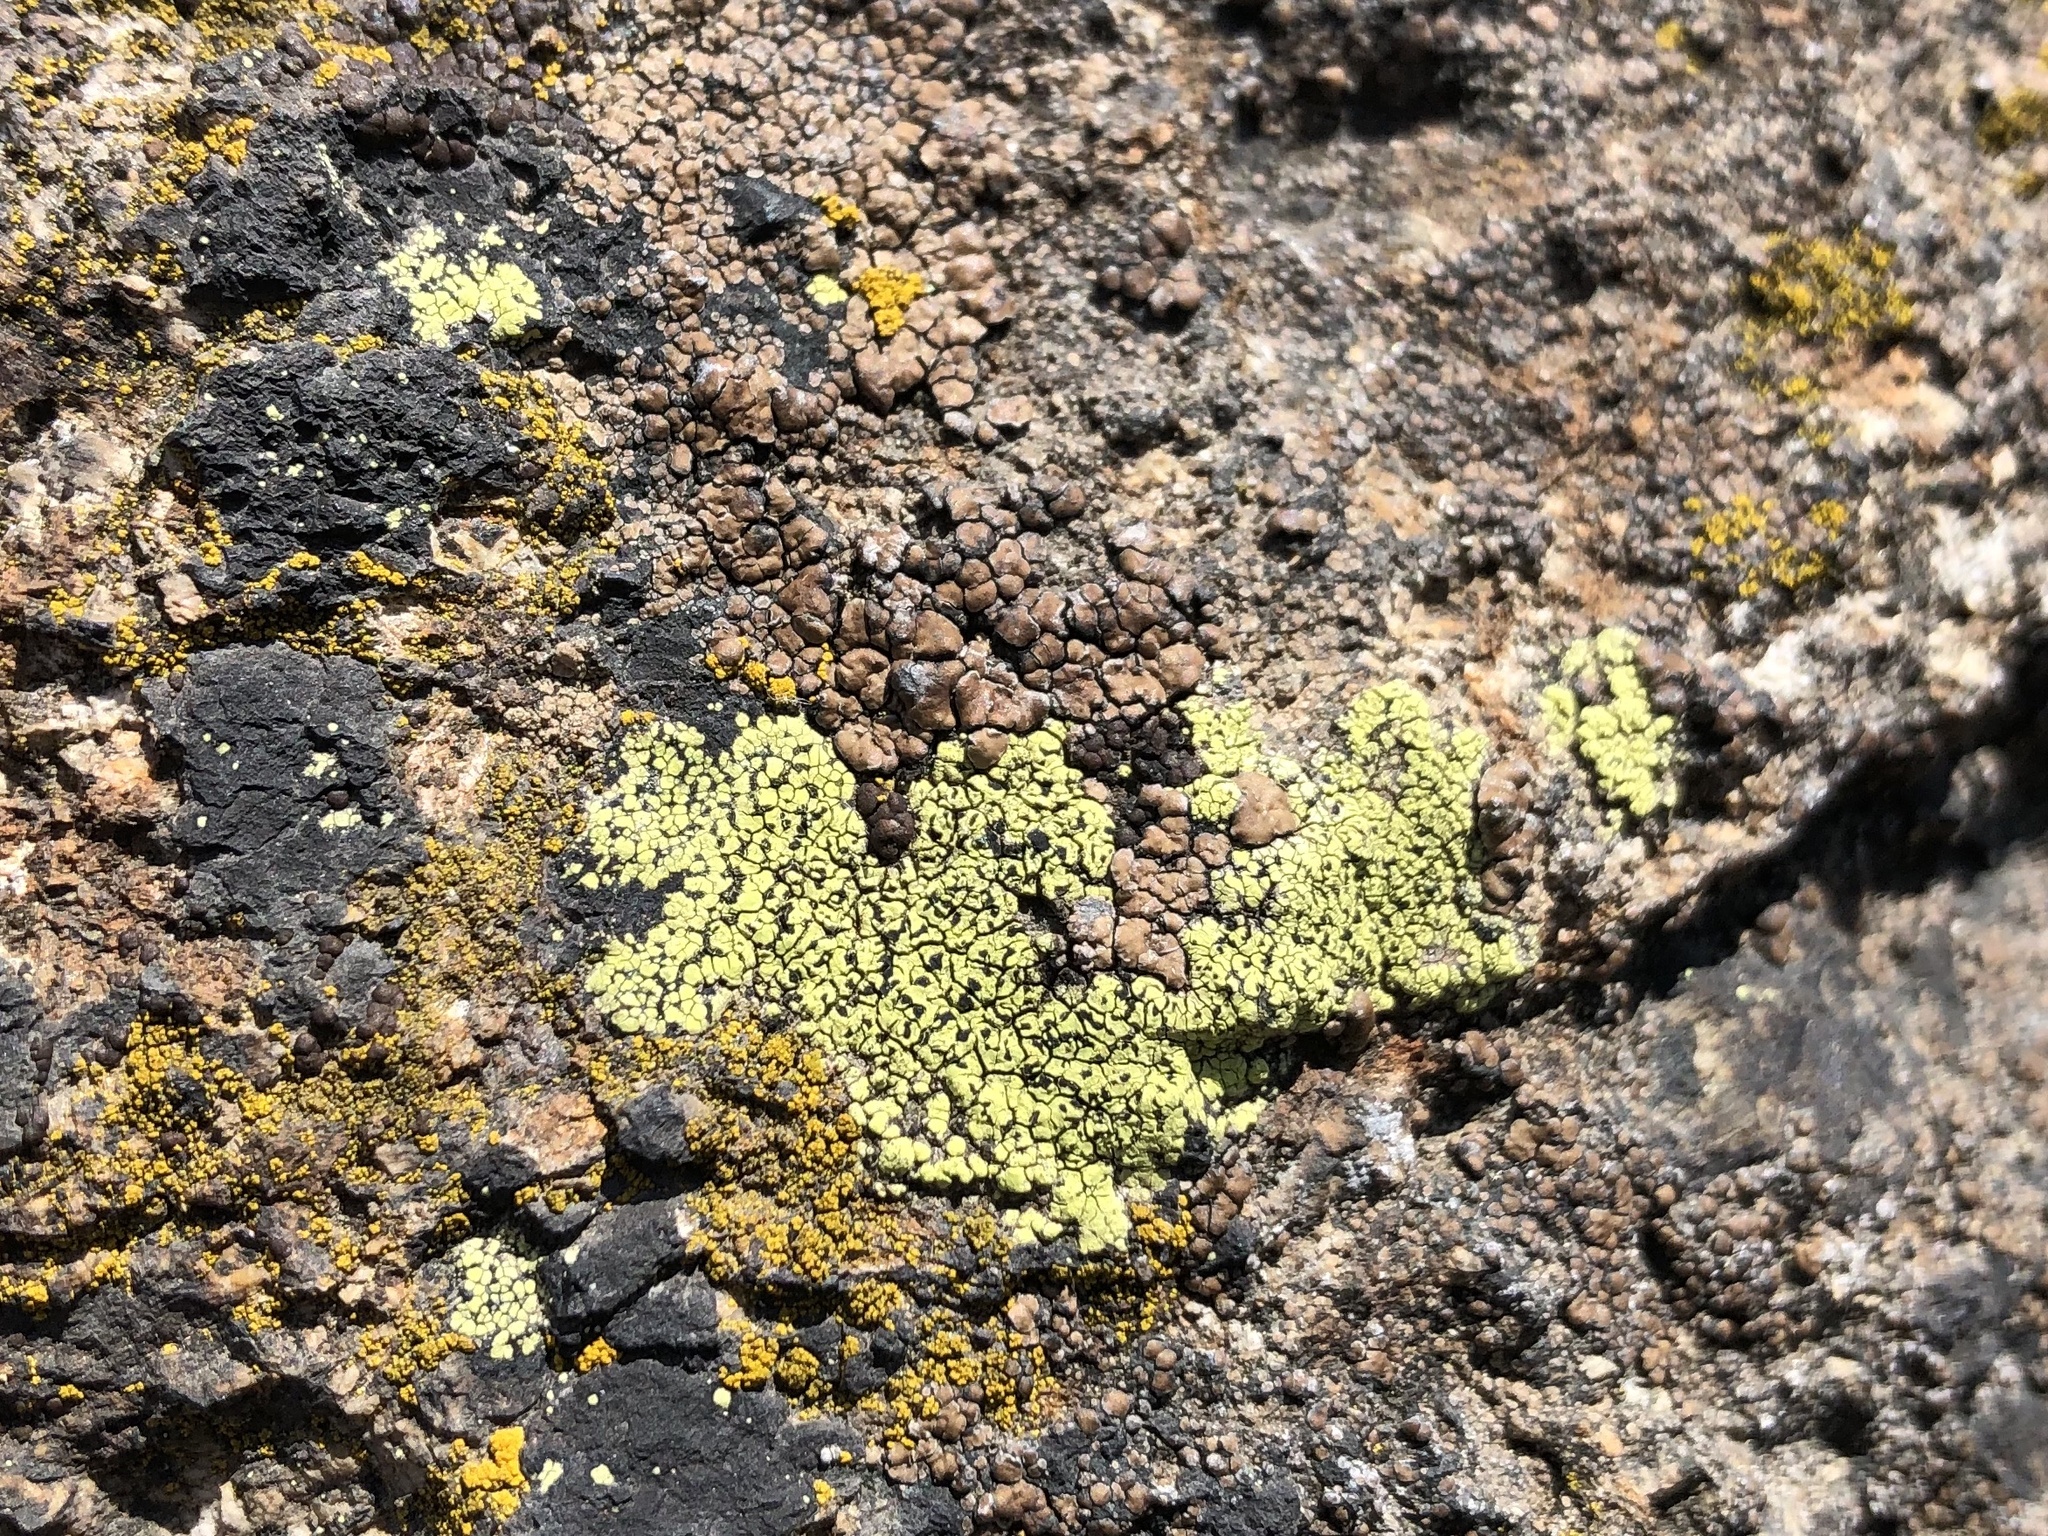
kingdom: Fungi
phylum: Ascomycota
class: Lecanoromycetes
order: Rhizocarpales
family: Rhizocarpaceae
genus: Rhizocarpon
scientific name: Rhizocarpon geographicum
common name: Yellow map lichen
